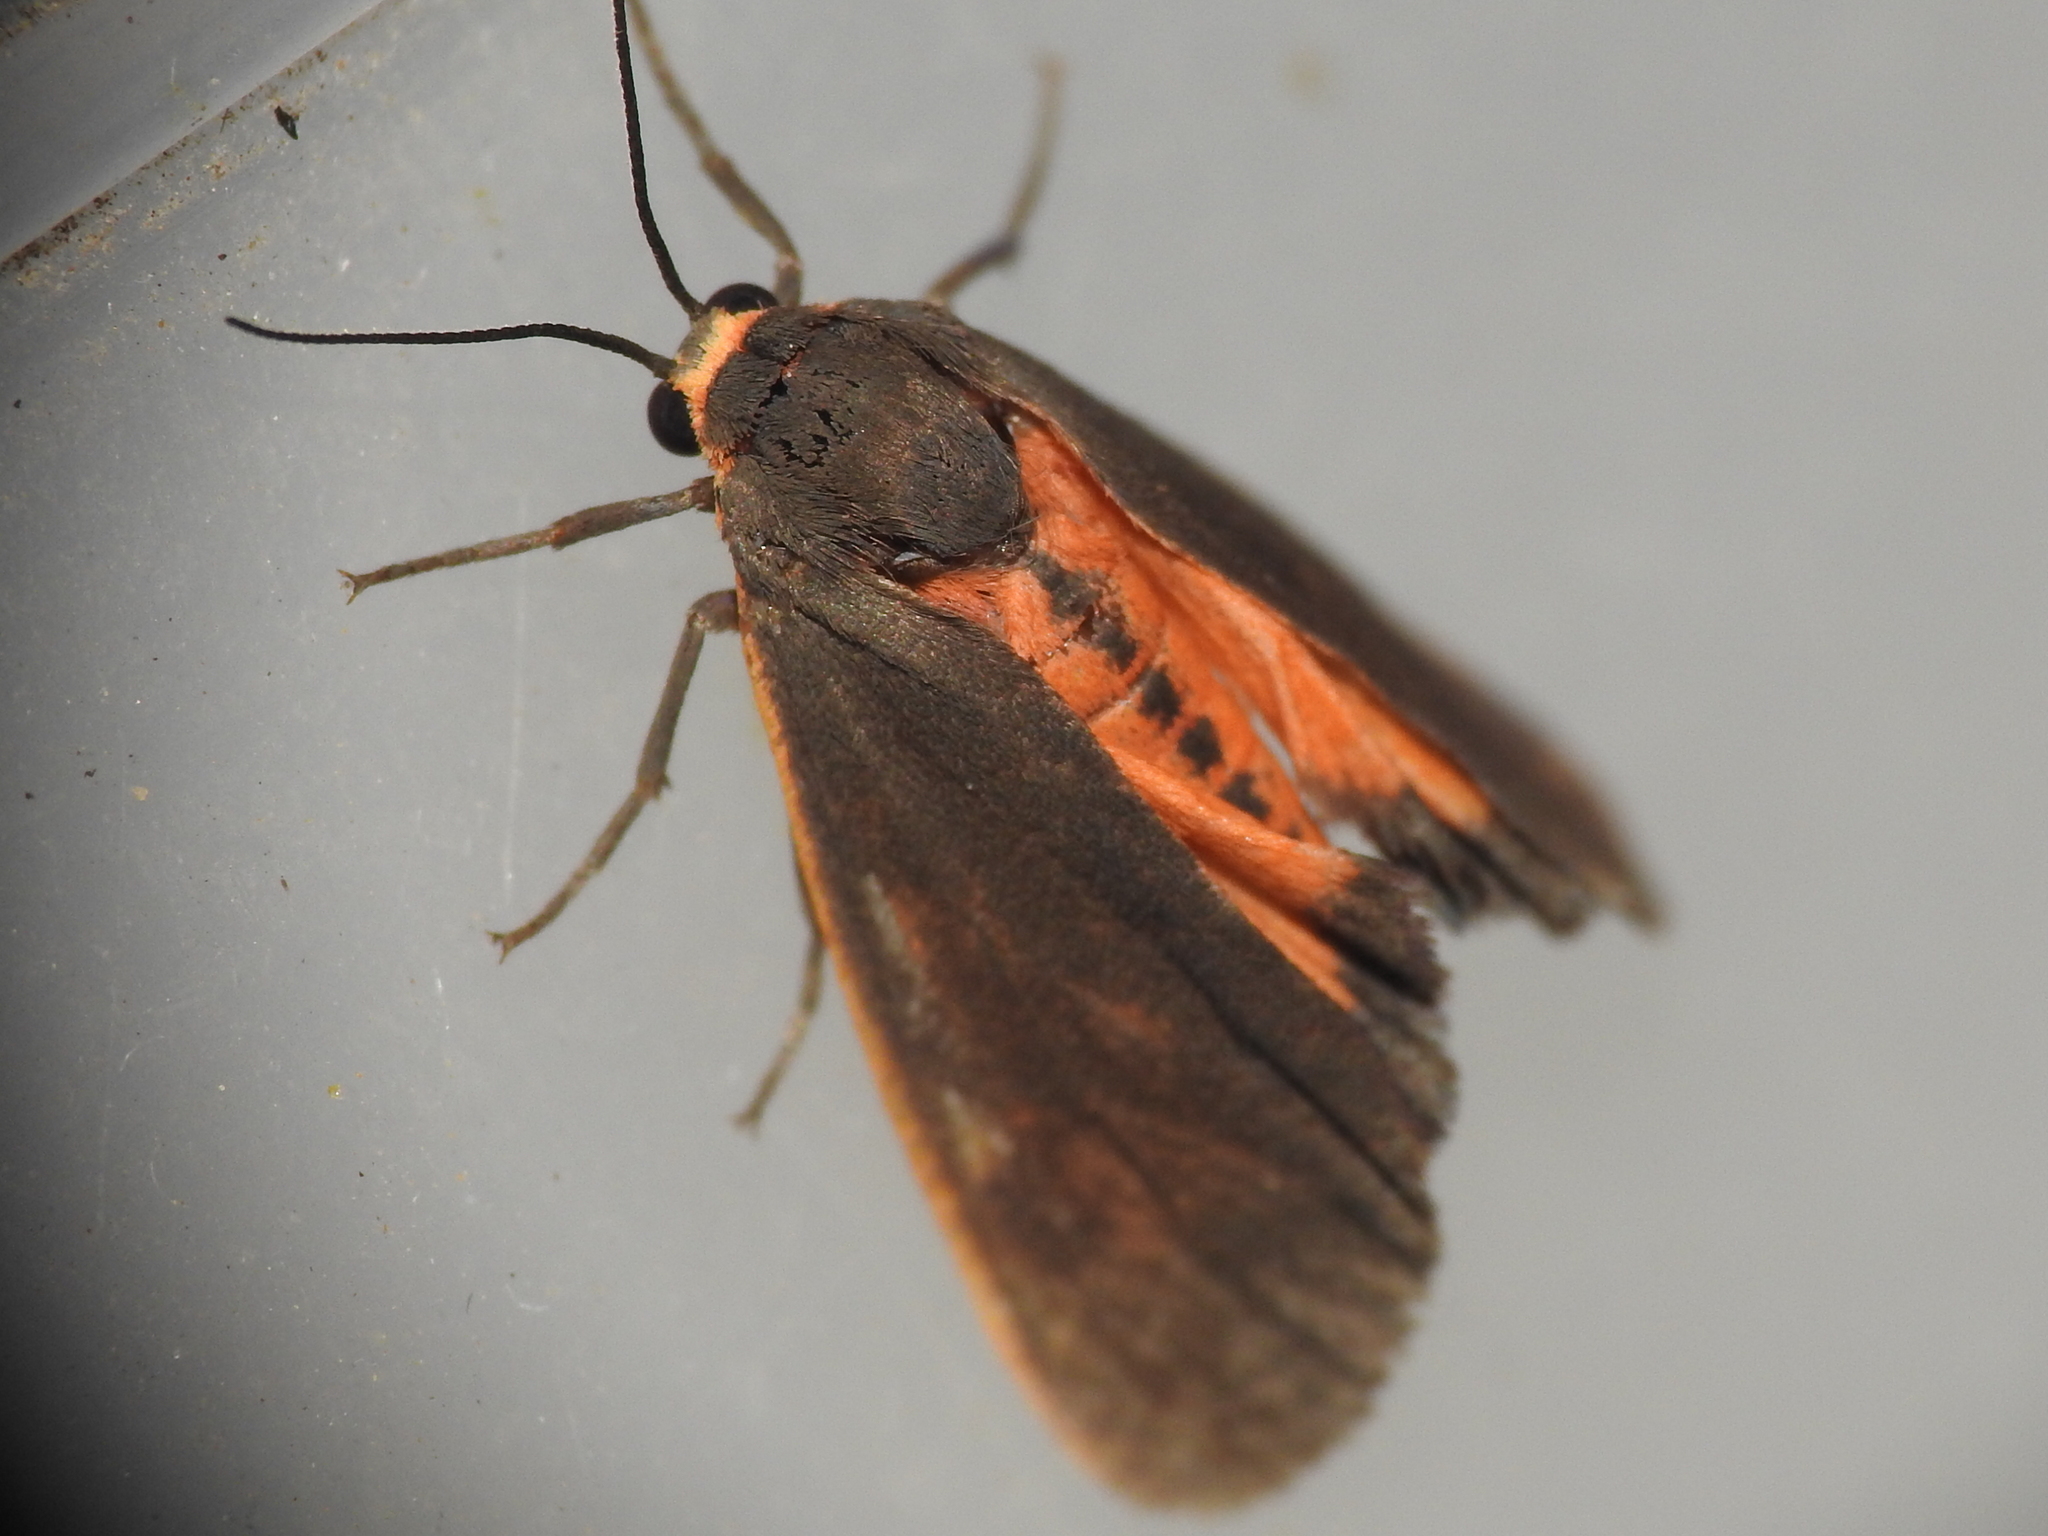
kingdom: Animalia
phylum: Arthropoda
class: Insecta
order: Lepidoptera
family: Erebidae
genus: Virbia
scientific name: Virbia laeta
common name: Joyful holomelina moth
